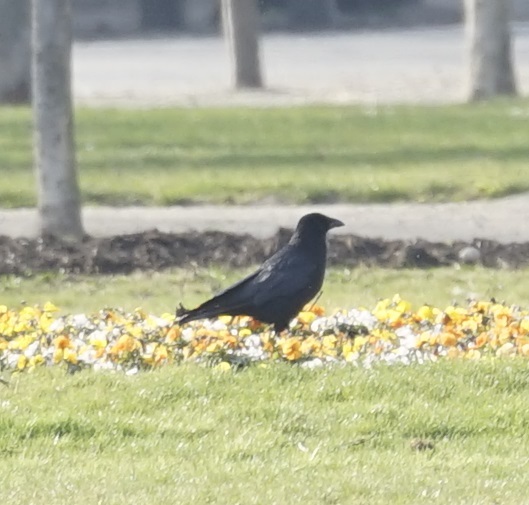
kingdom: Animalia
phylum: Chordata
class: Aves
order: Passeriformes
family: Corvidae
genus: Corvus
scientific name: Corvus corone
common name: Carrion crow
